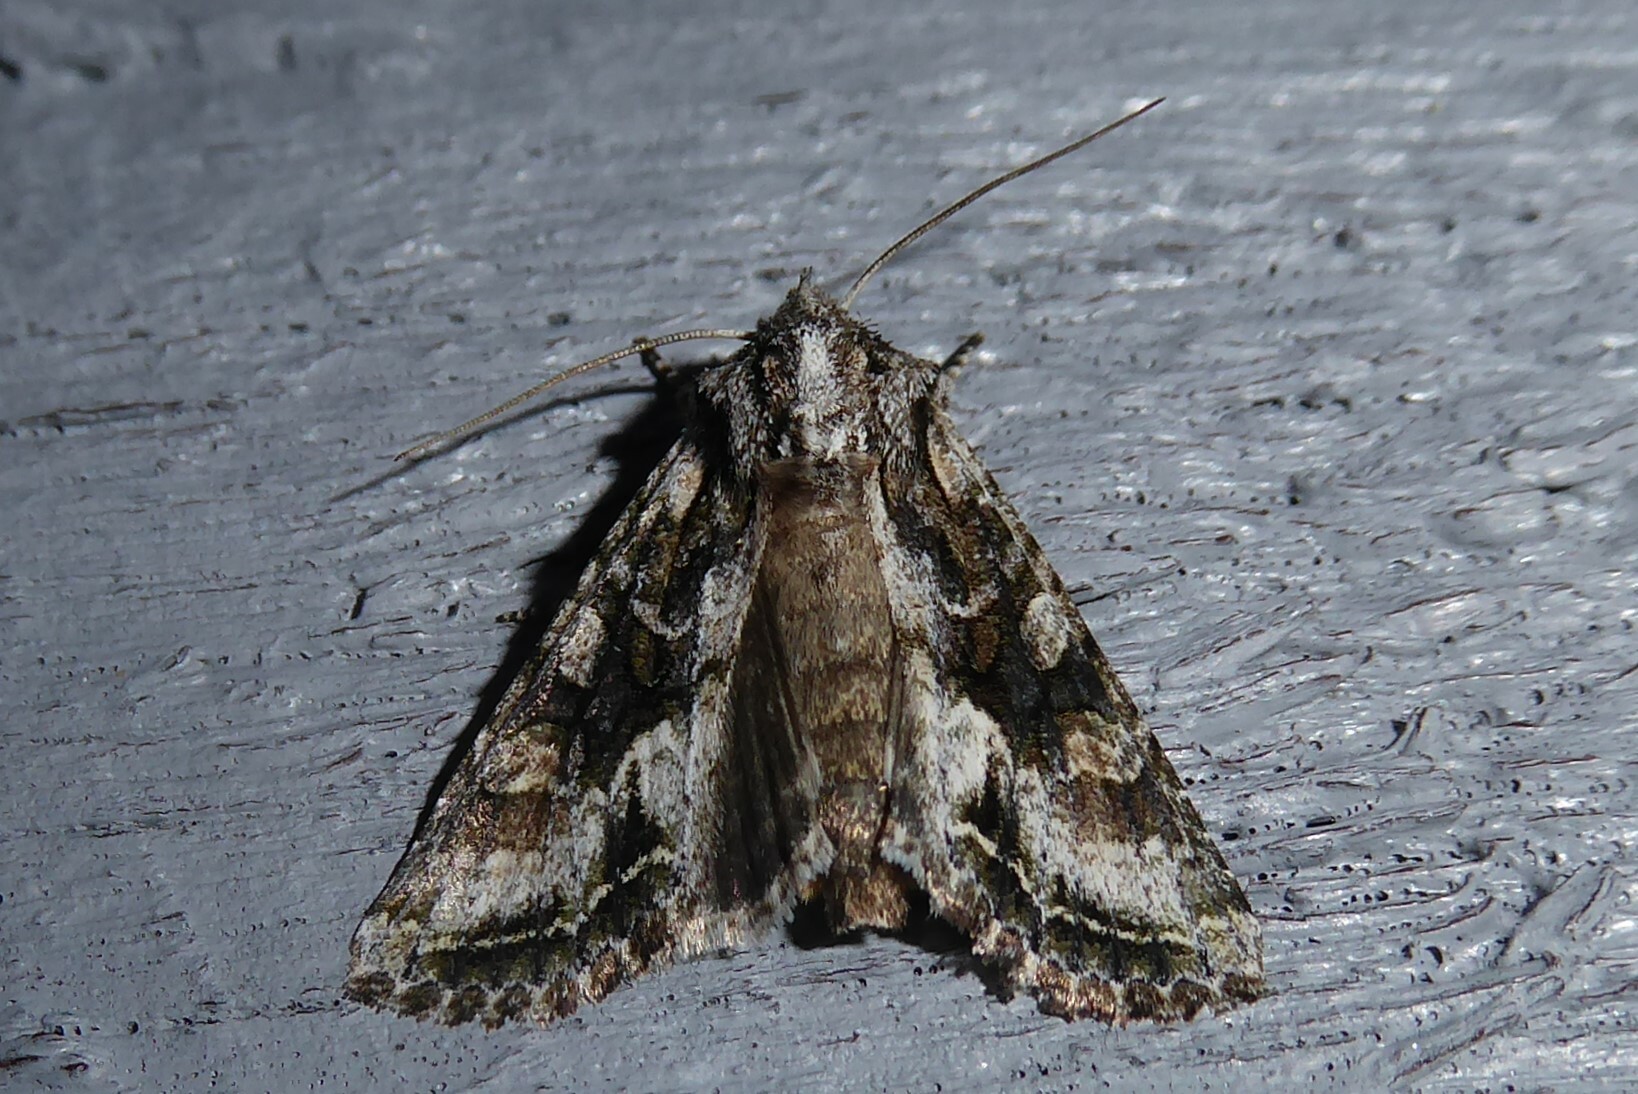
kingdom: Animalia
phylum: Arthropoda
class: Insecta
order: Lepidoptera
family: Noctuidae
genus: Ichneutica
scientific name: Ichneutica mutans
